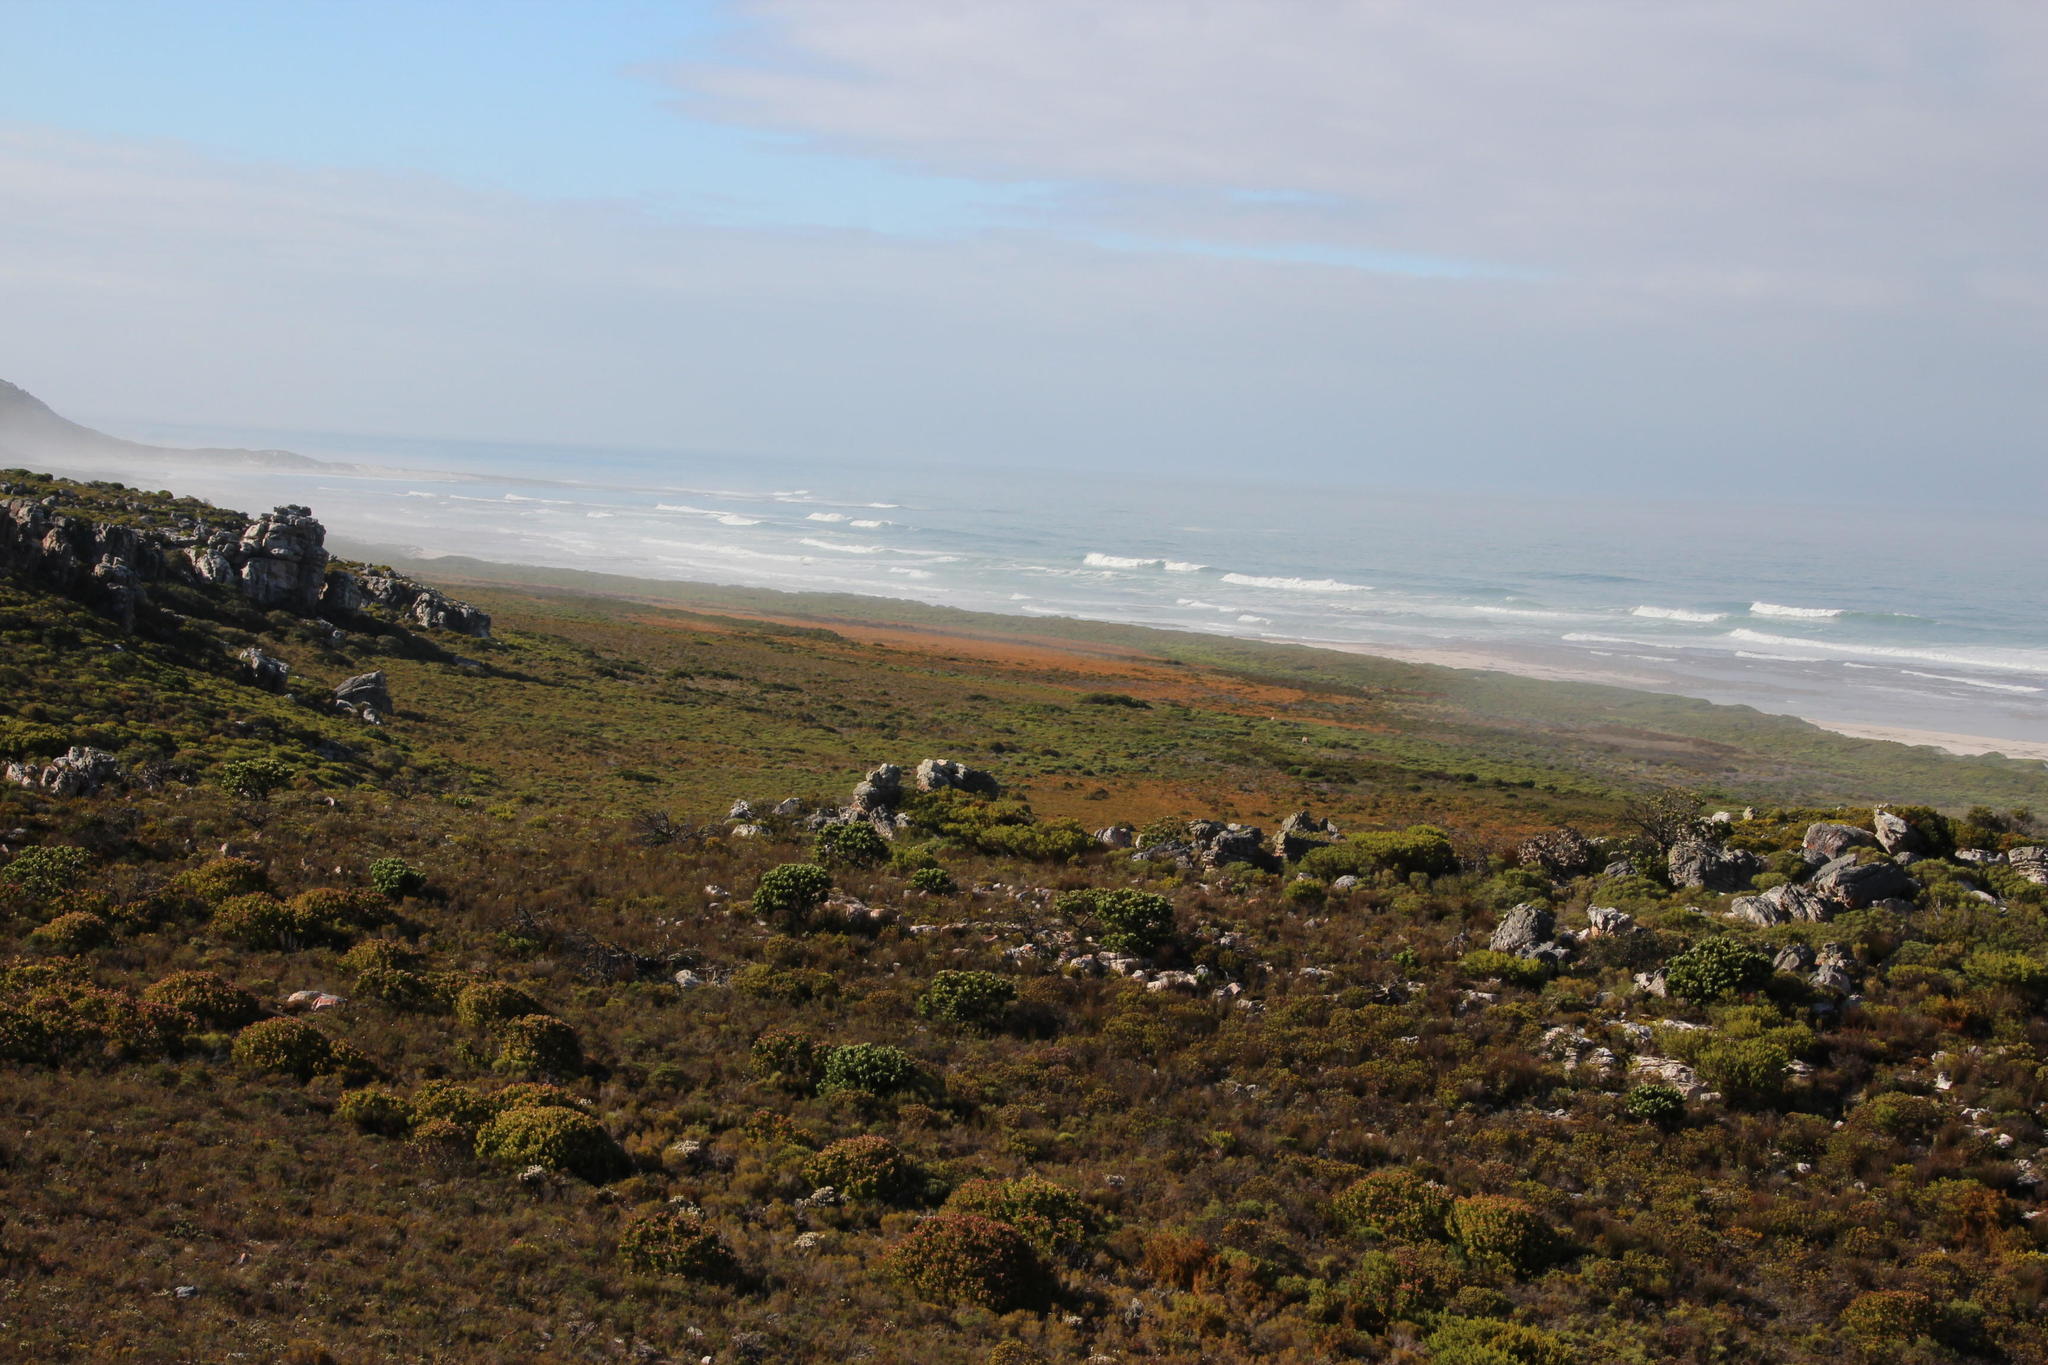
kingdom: Plantae
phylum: Tracheophyta
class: Magnoliopsida
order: Proteales
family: Proteaceae
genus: Mimetes
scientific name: Mimetes fimbriifolius
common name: Fringed bottlebrush
